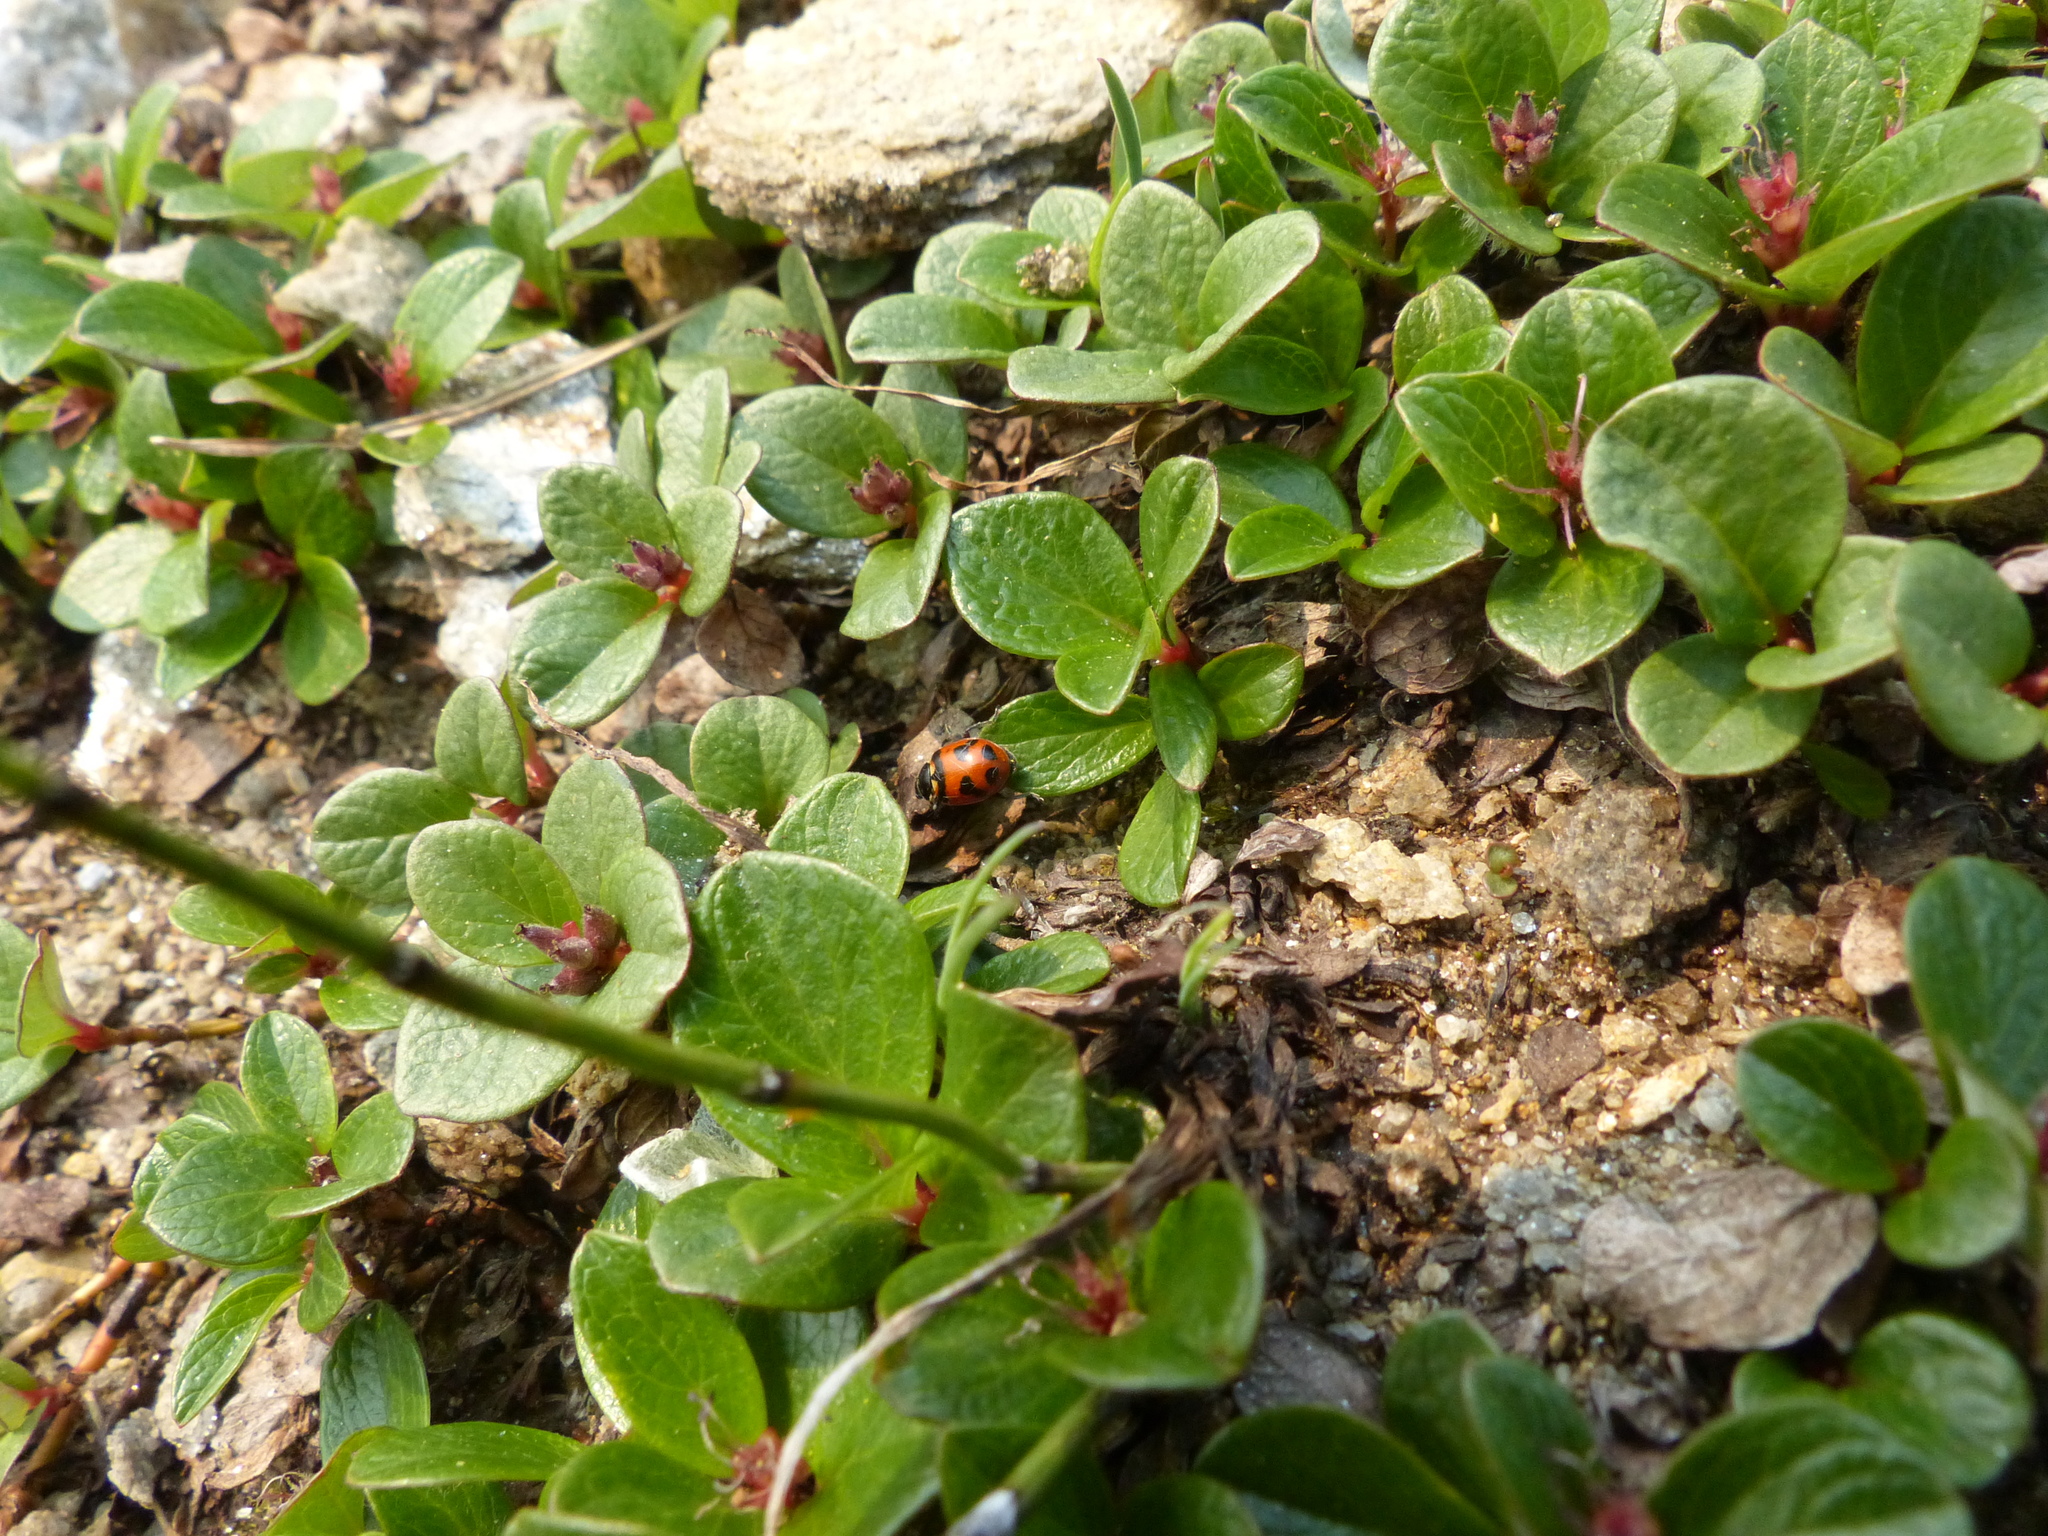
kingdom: Animalia
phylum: Arthropoda
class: Insecta
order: Coleoptera
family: Coccinellidae
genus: Hippodamia
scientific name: Hippodamia oregonensis
